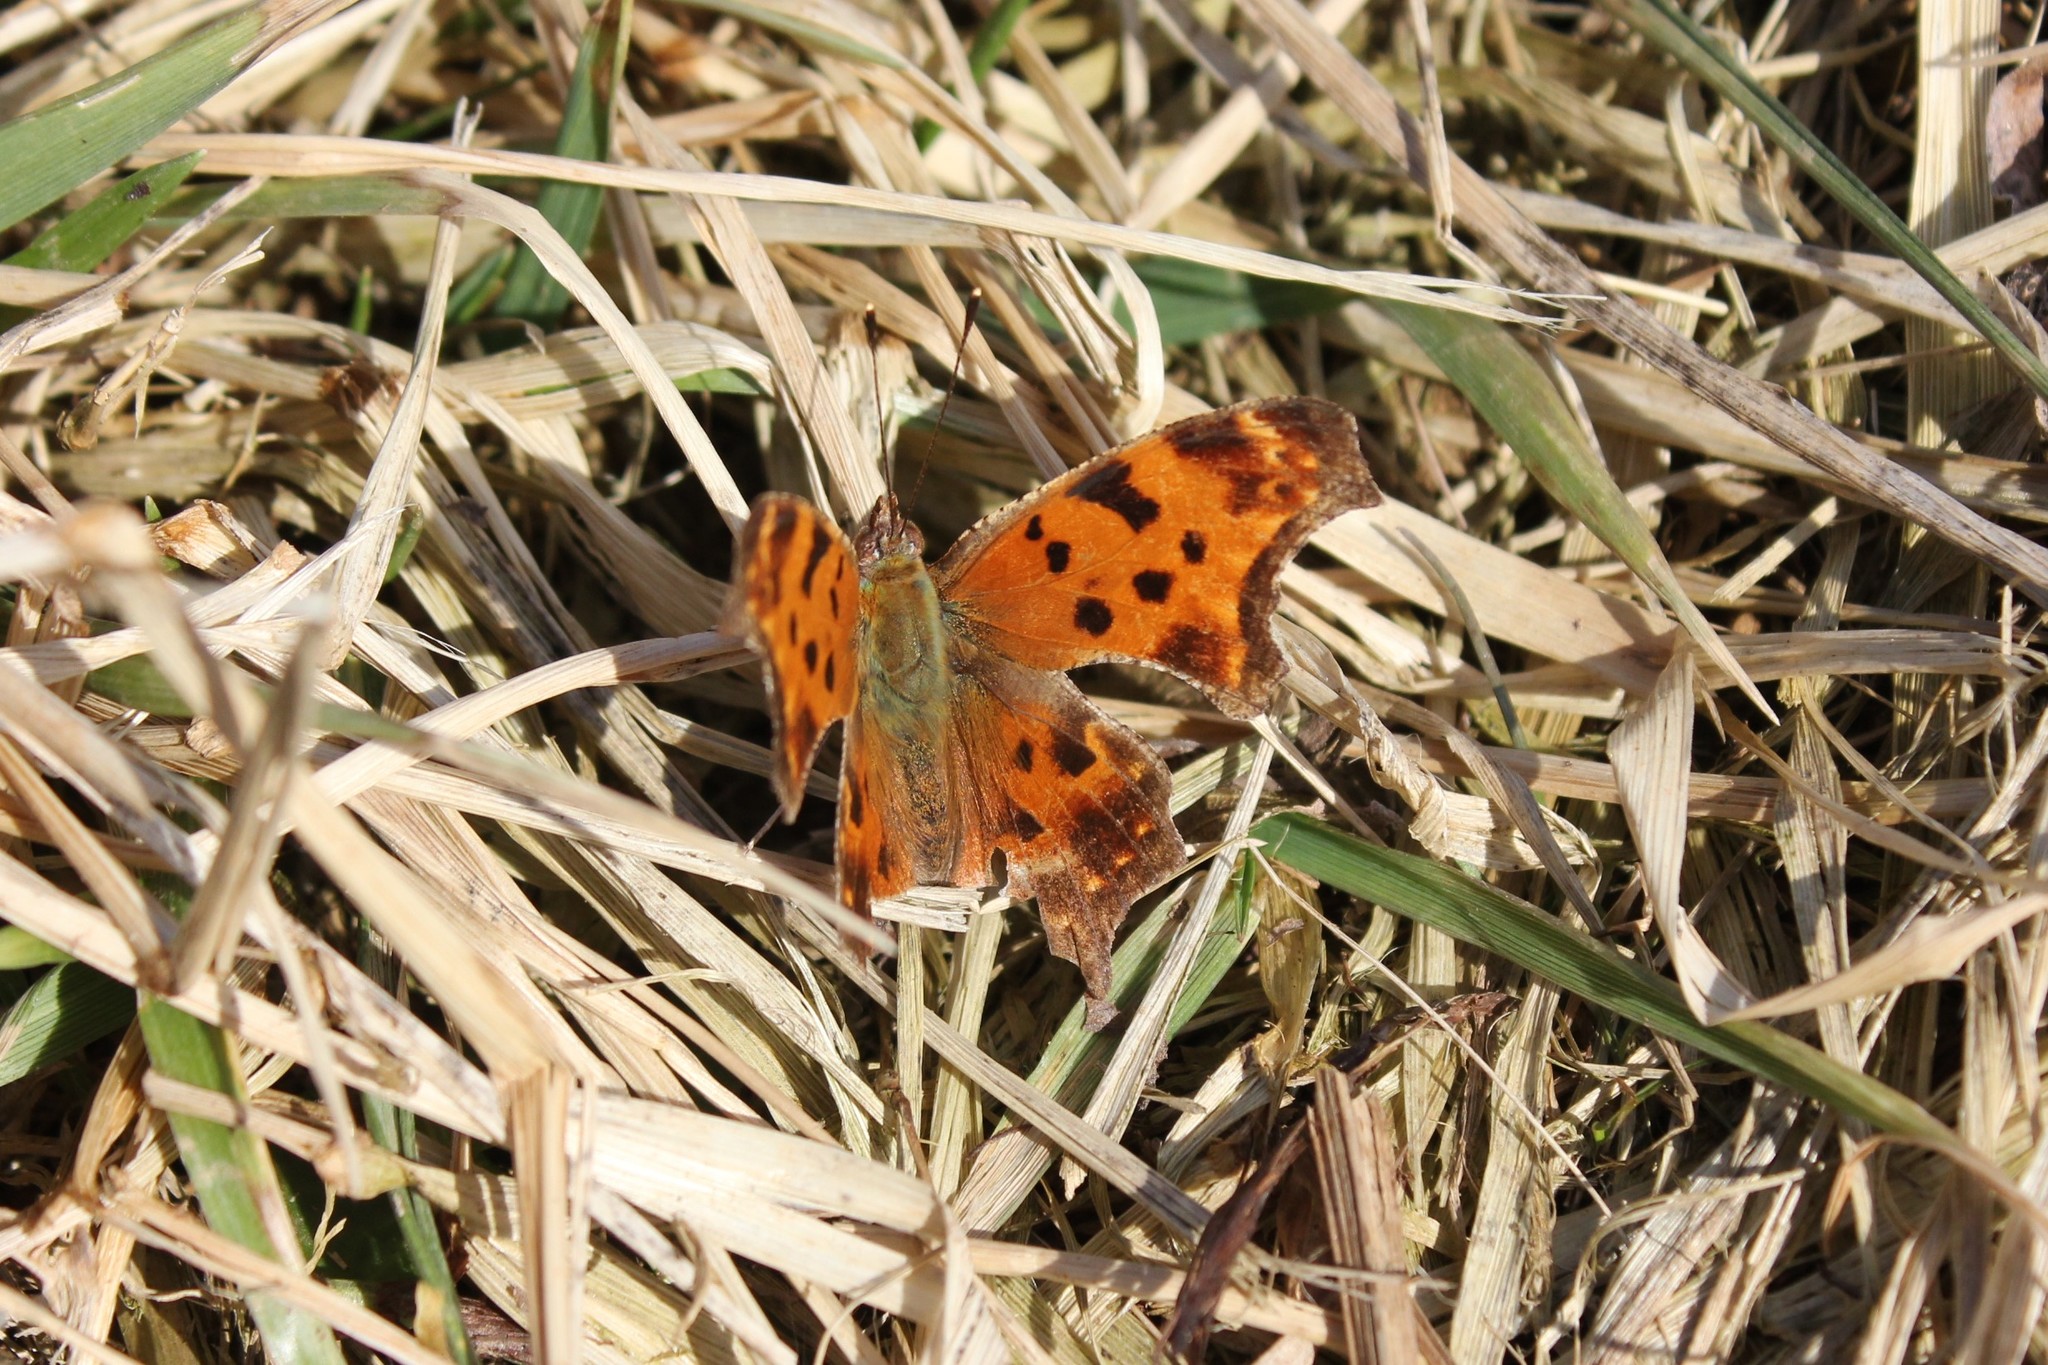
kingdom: Animalia
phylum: Arthropoda
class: Insecta
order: Lepidoptera
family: Nymphalidae
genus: Polygonia
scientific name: Polygonia comma
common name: Eastern comma
